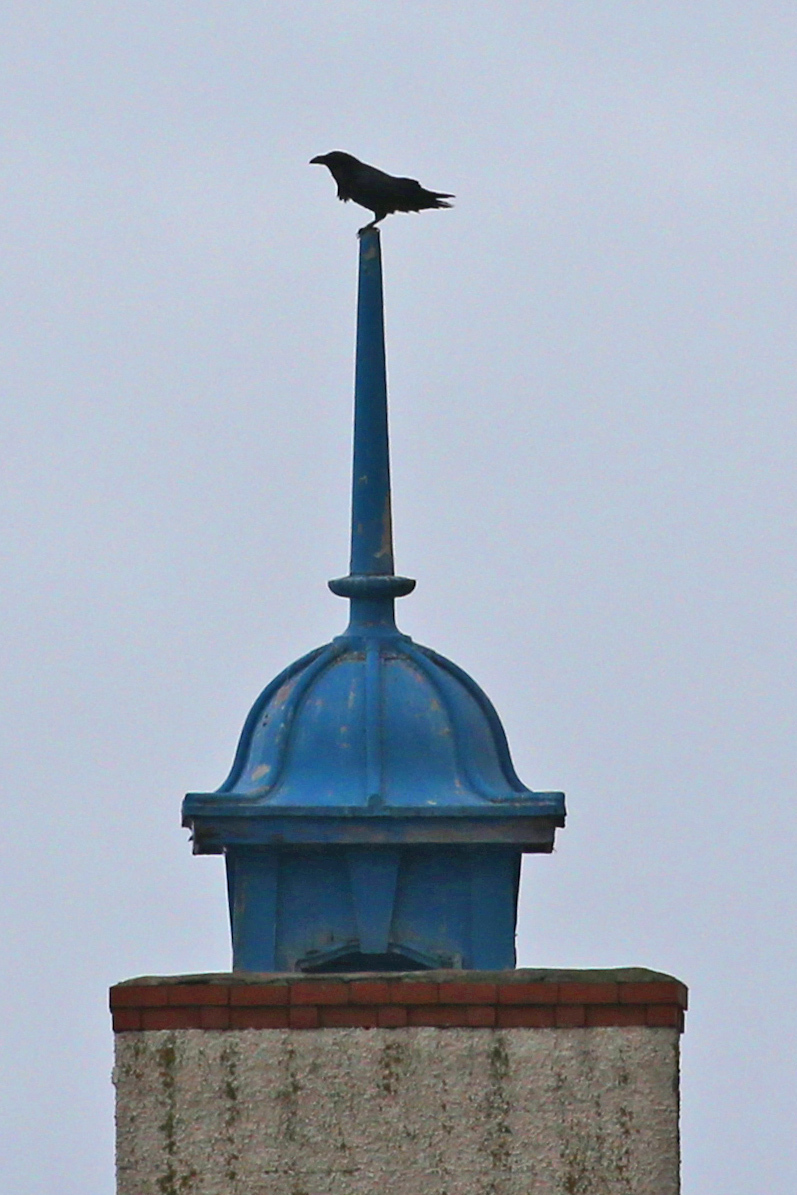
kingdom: Animalia
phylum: Chordata
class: Aves
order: Passeriformes
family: Corvidae
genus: Corvus
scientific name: Corvus corax
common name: Common raven
